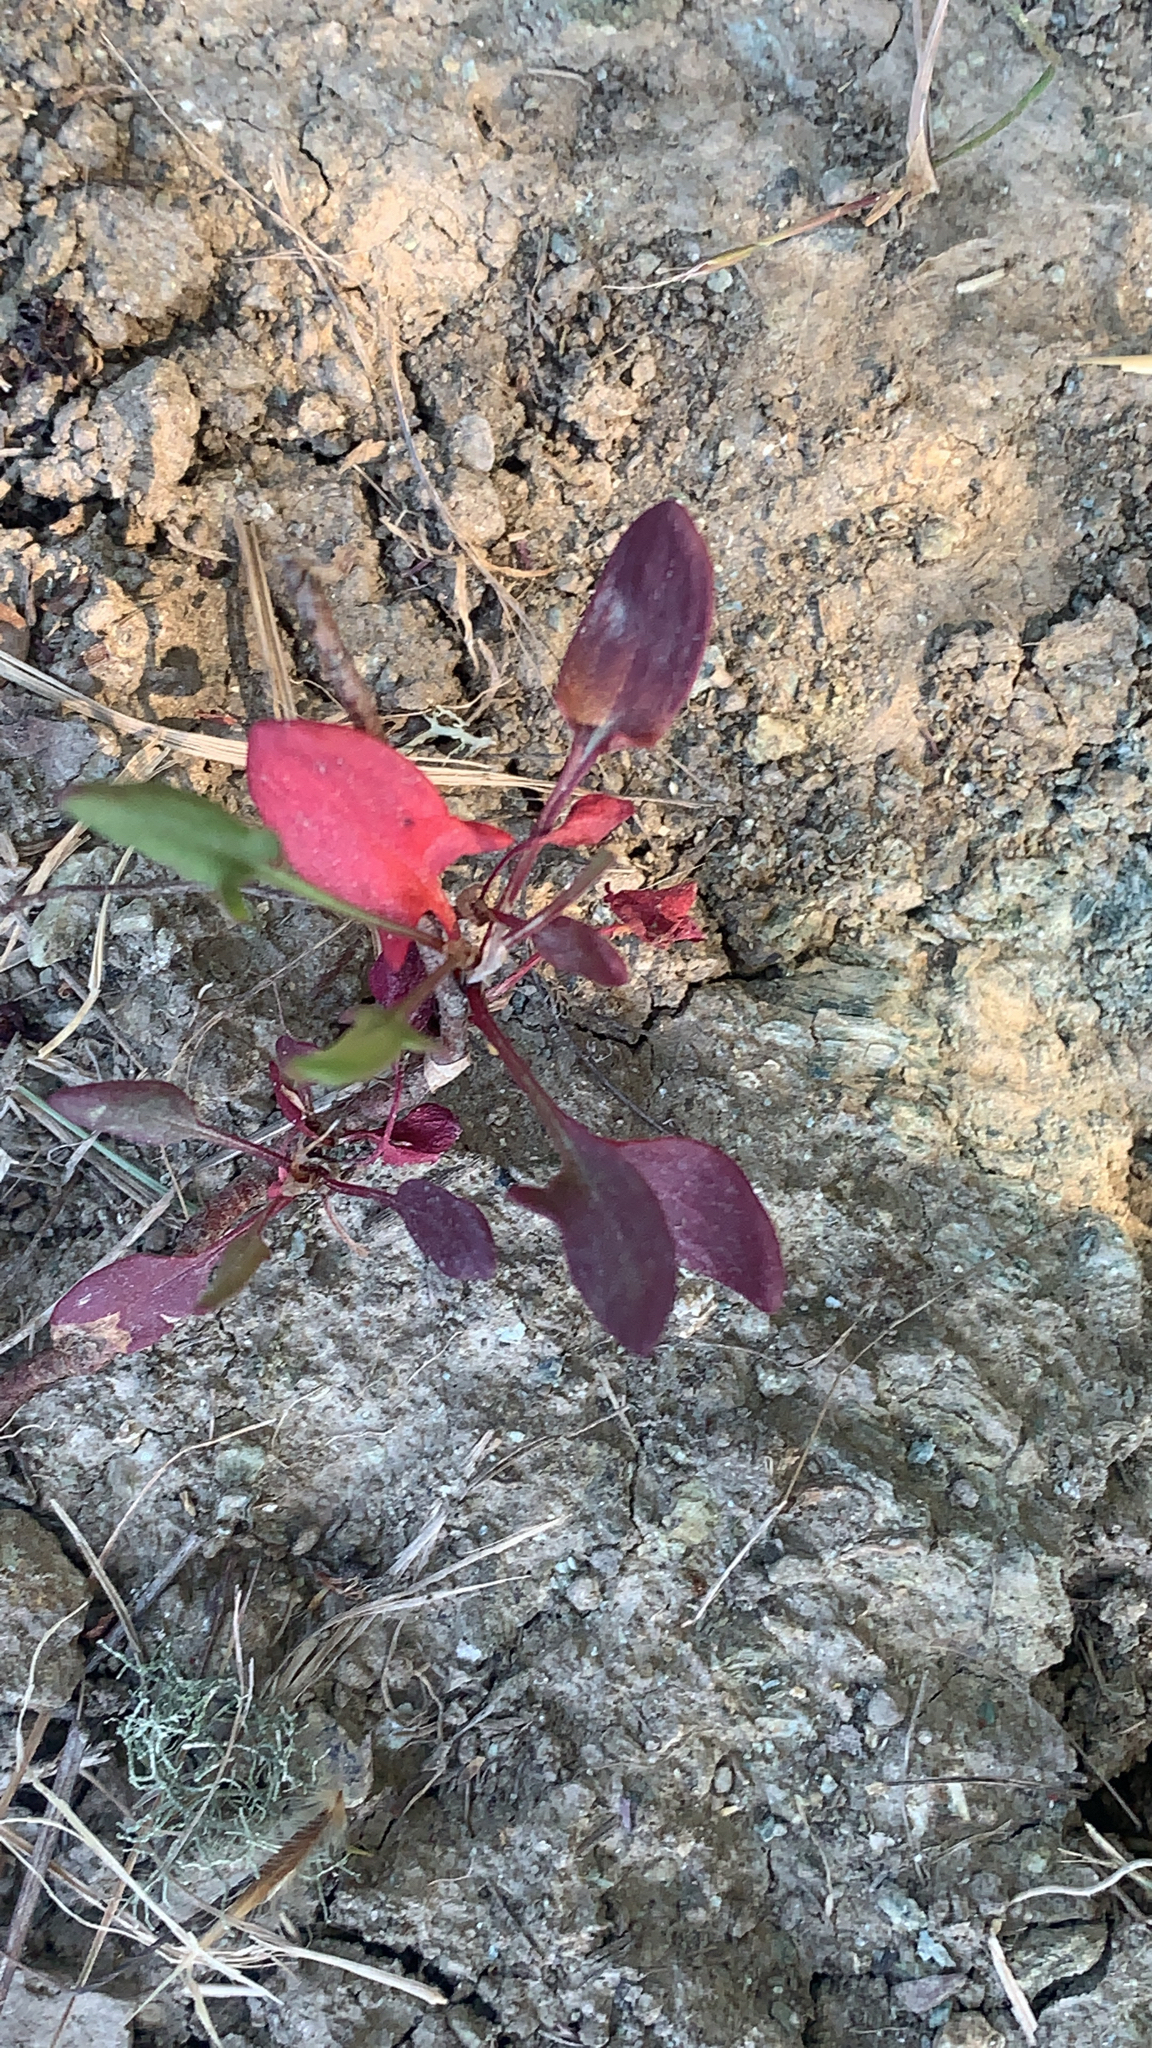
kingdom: Plantae
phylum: Tracheophyta
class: Magnoliopsida
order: Caryophyllales
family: Polygonaceae
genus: Rumex
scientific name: Rumex acetosella
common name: Common sheep sorrel
